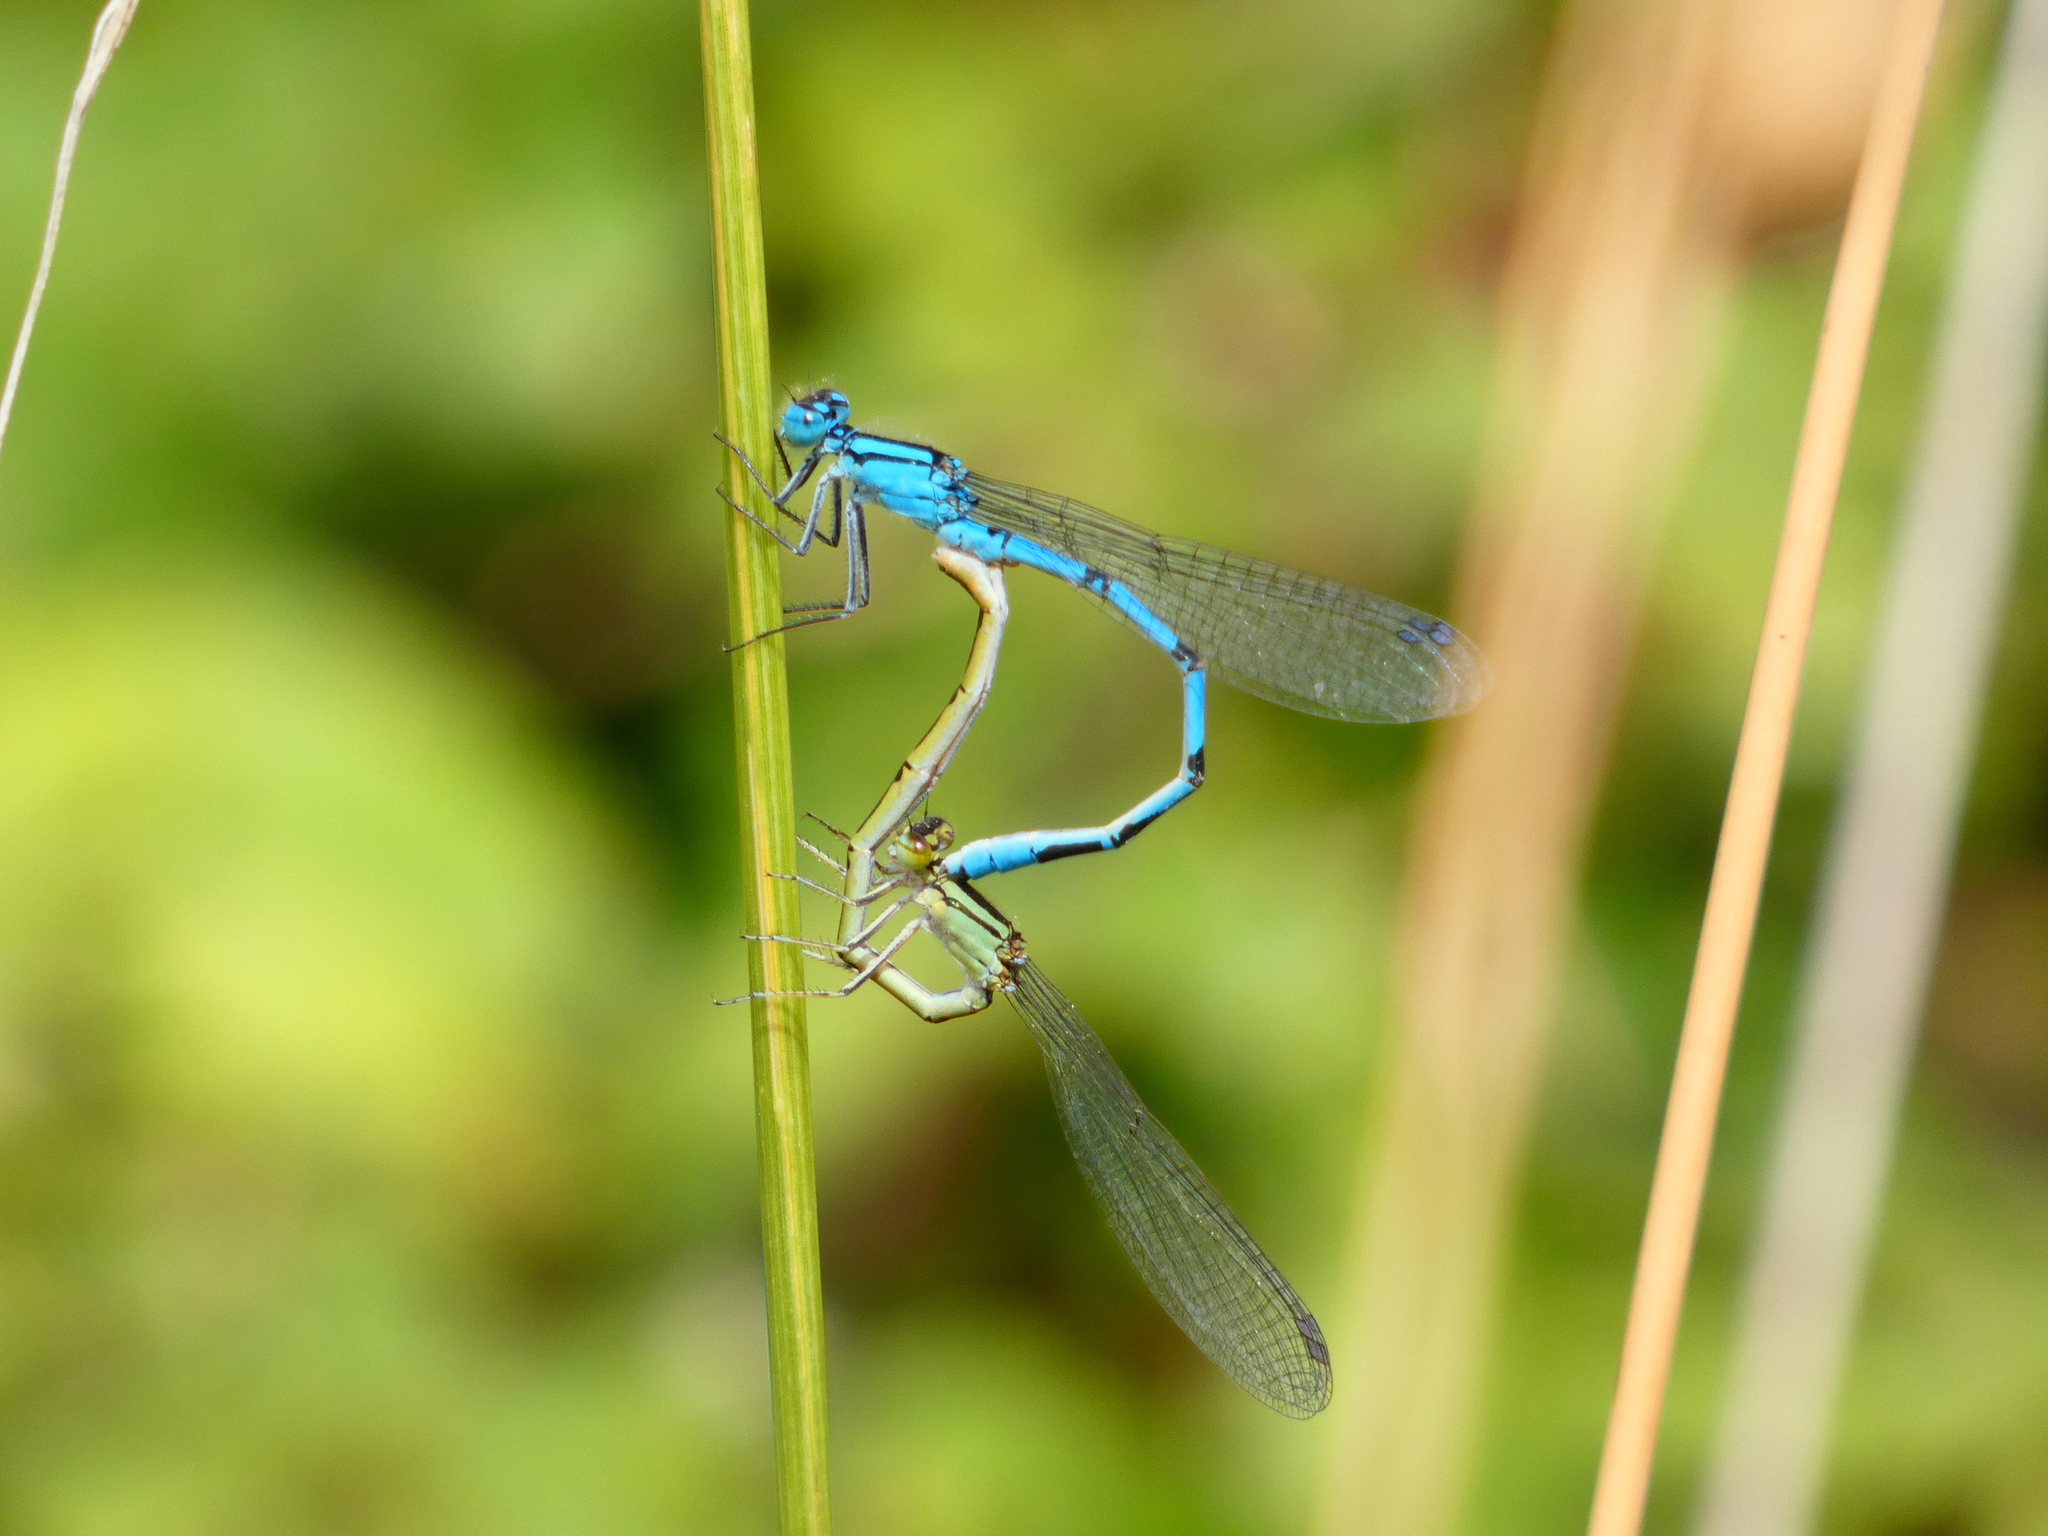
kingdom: Animalia
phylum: Arthropoda
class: Insecta
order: Odonata
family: Coenagrionidae
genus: Enallagma
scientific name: Enallagma cyathigerum
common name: Common blue damselfly
